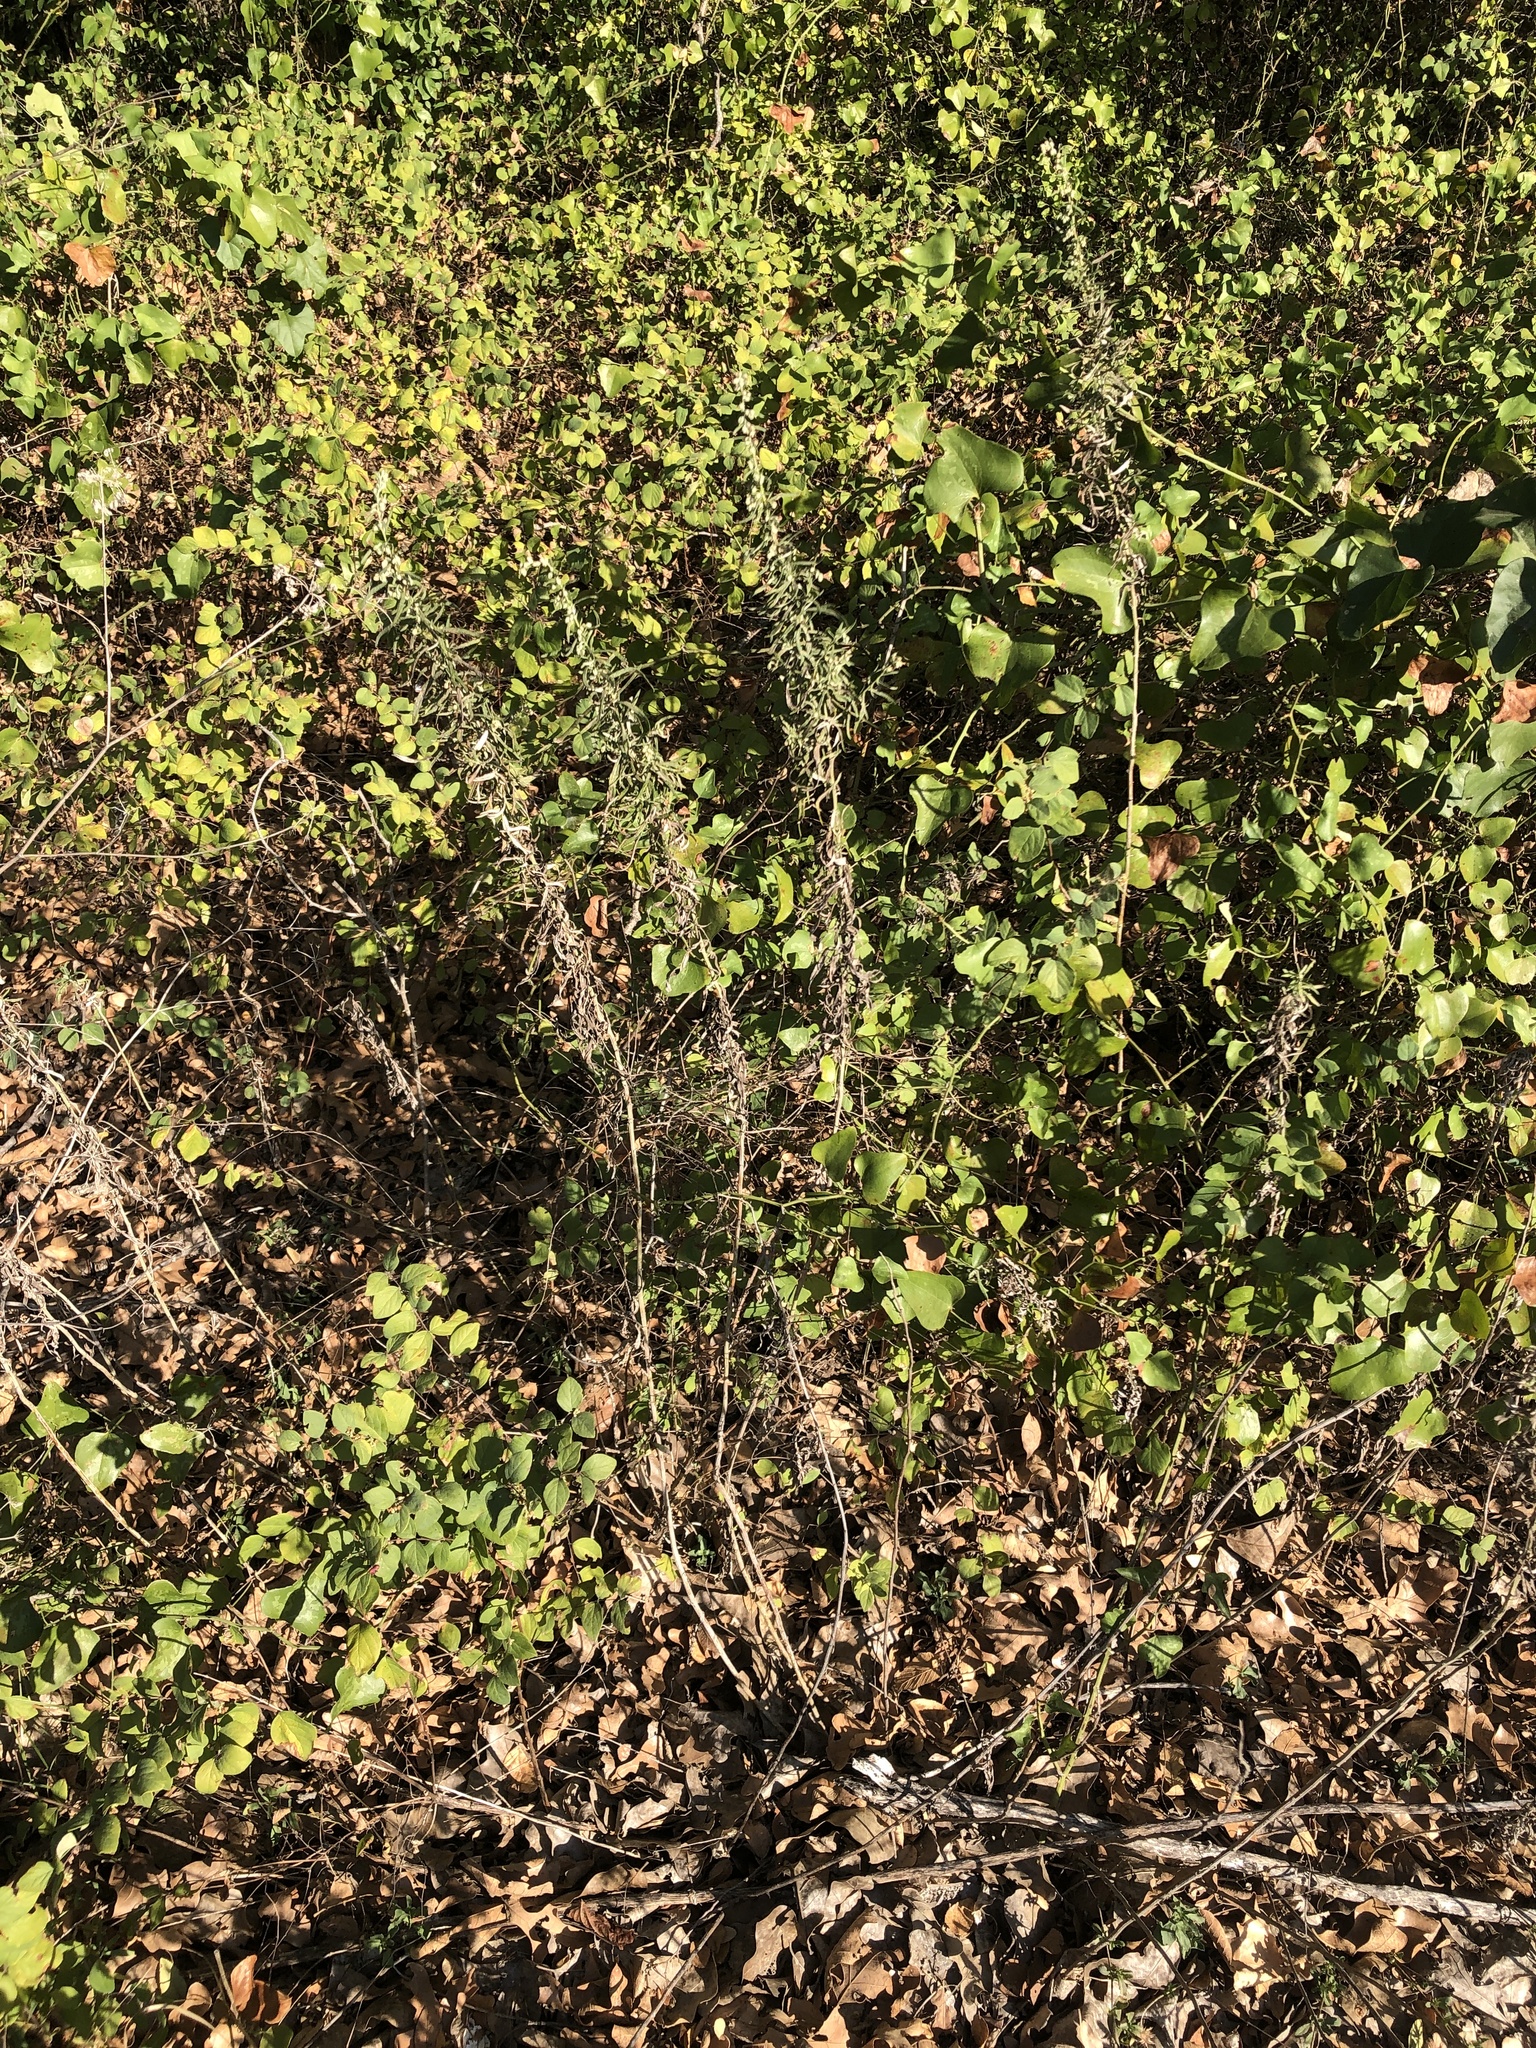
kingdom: Plantae
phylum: Tracheophyta
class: Magnoliopsida
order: Asterales
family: Asteraceae
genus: Artemisia
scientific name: Artemisia ludoviciana
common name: Western mugwort
